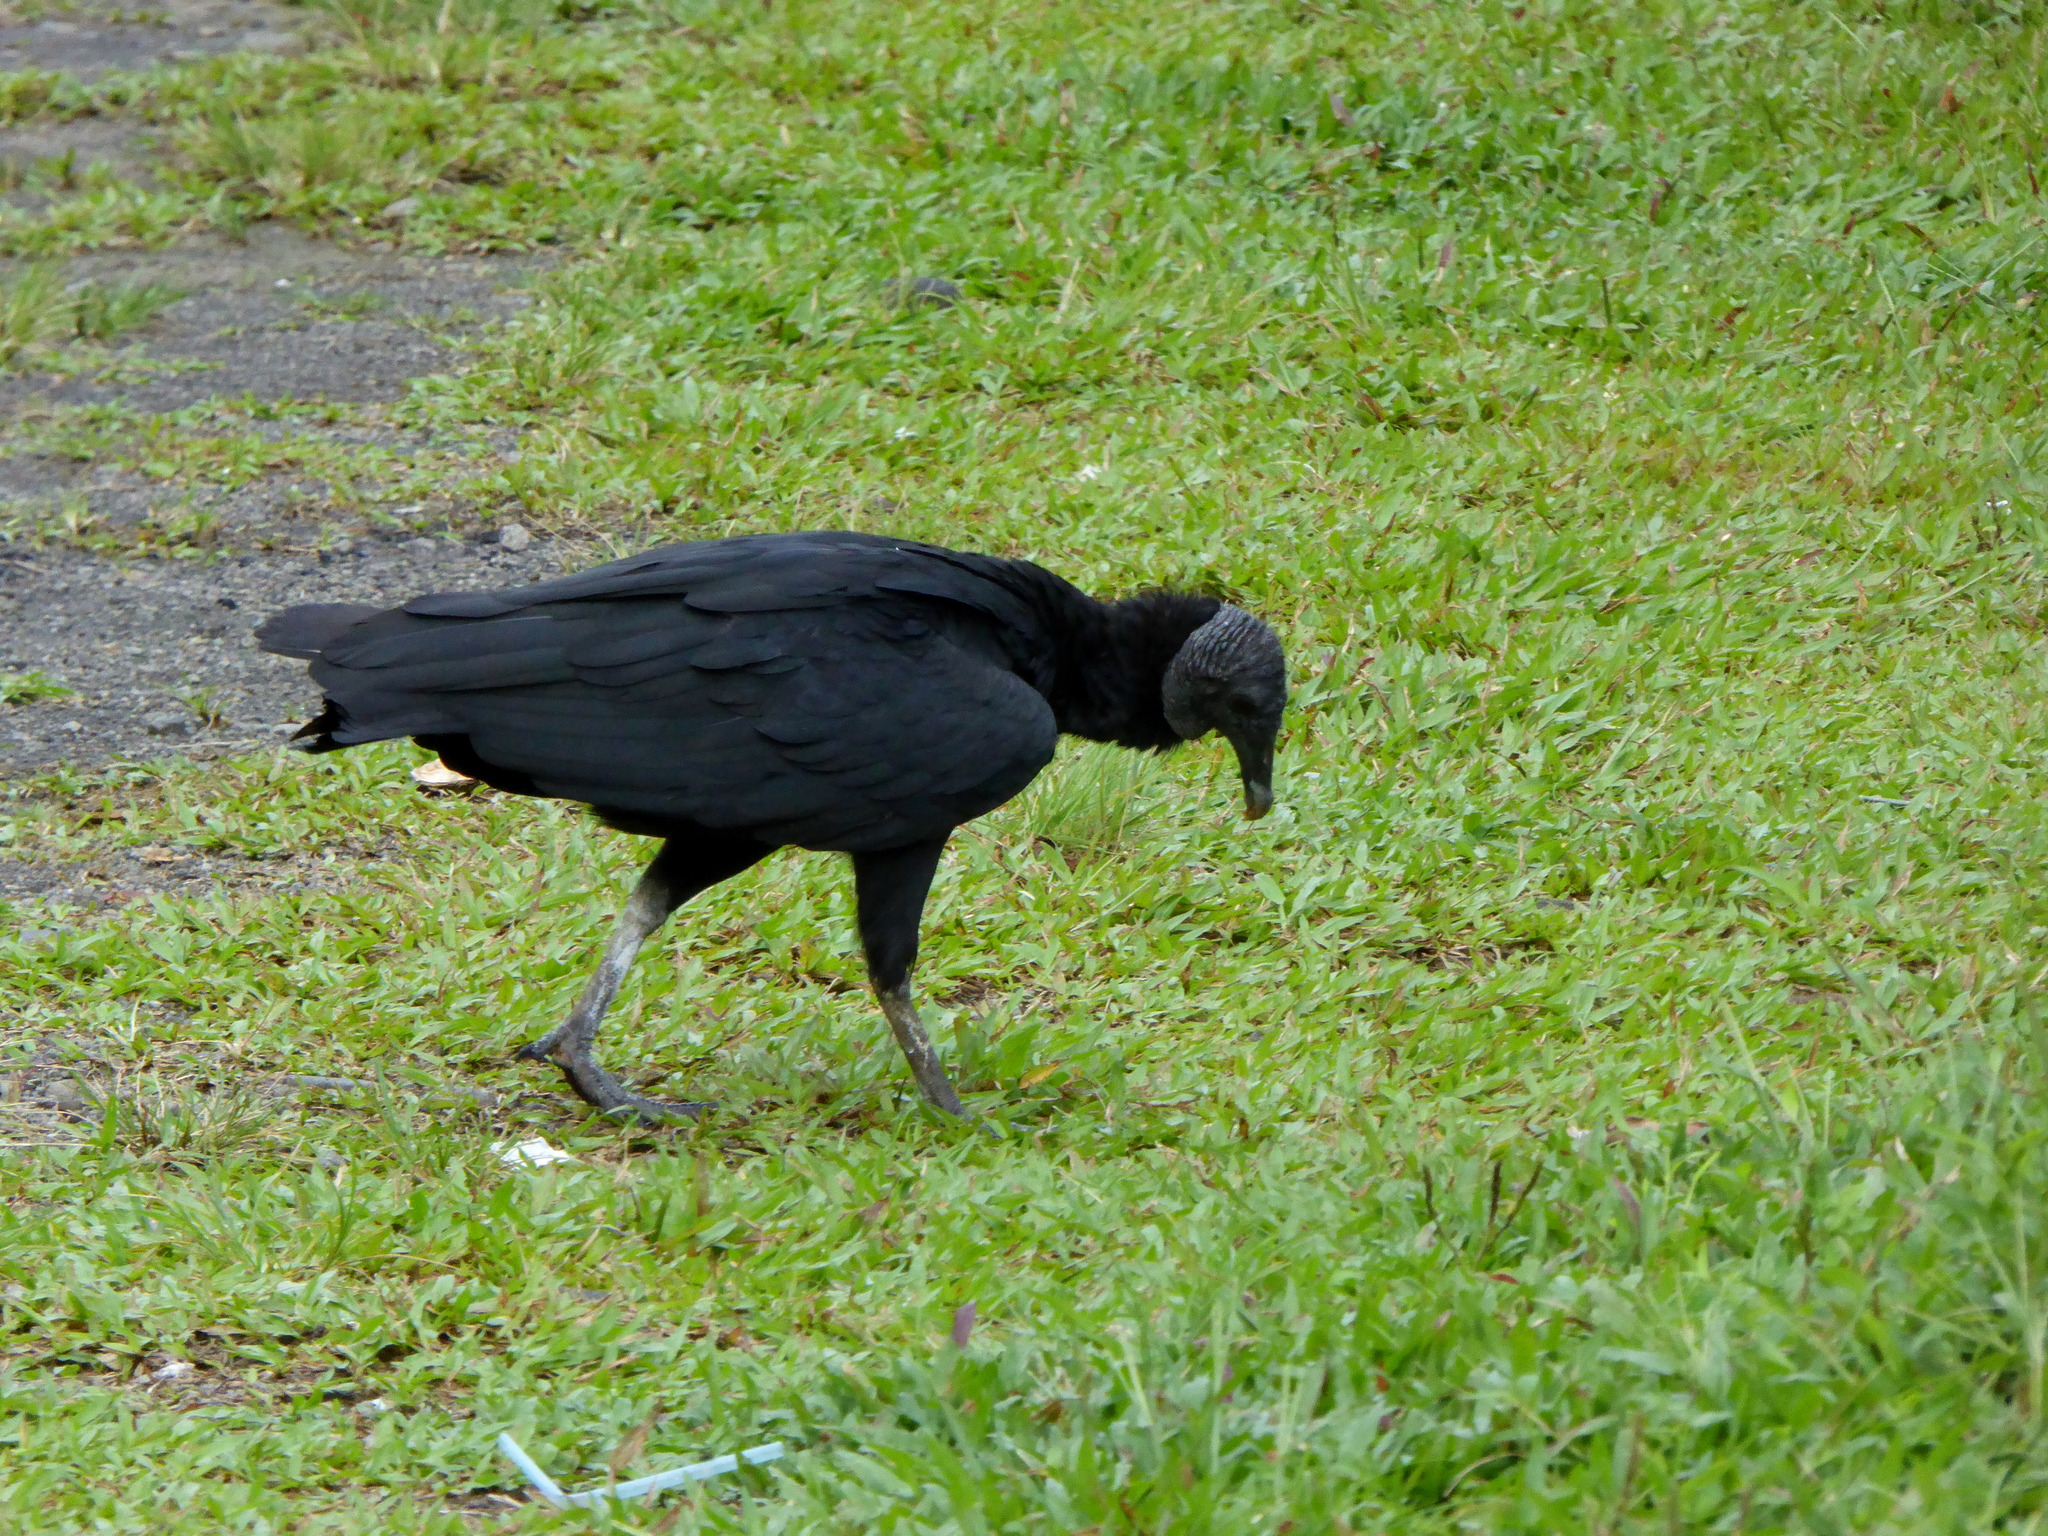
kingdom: Animalia
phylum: Chordata
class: Aves
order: Accipitriformes
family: Cathartidae
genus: Coragyps
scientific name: Coragyps atratus
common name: Black vulture
